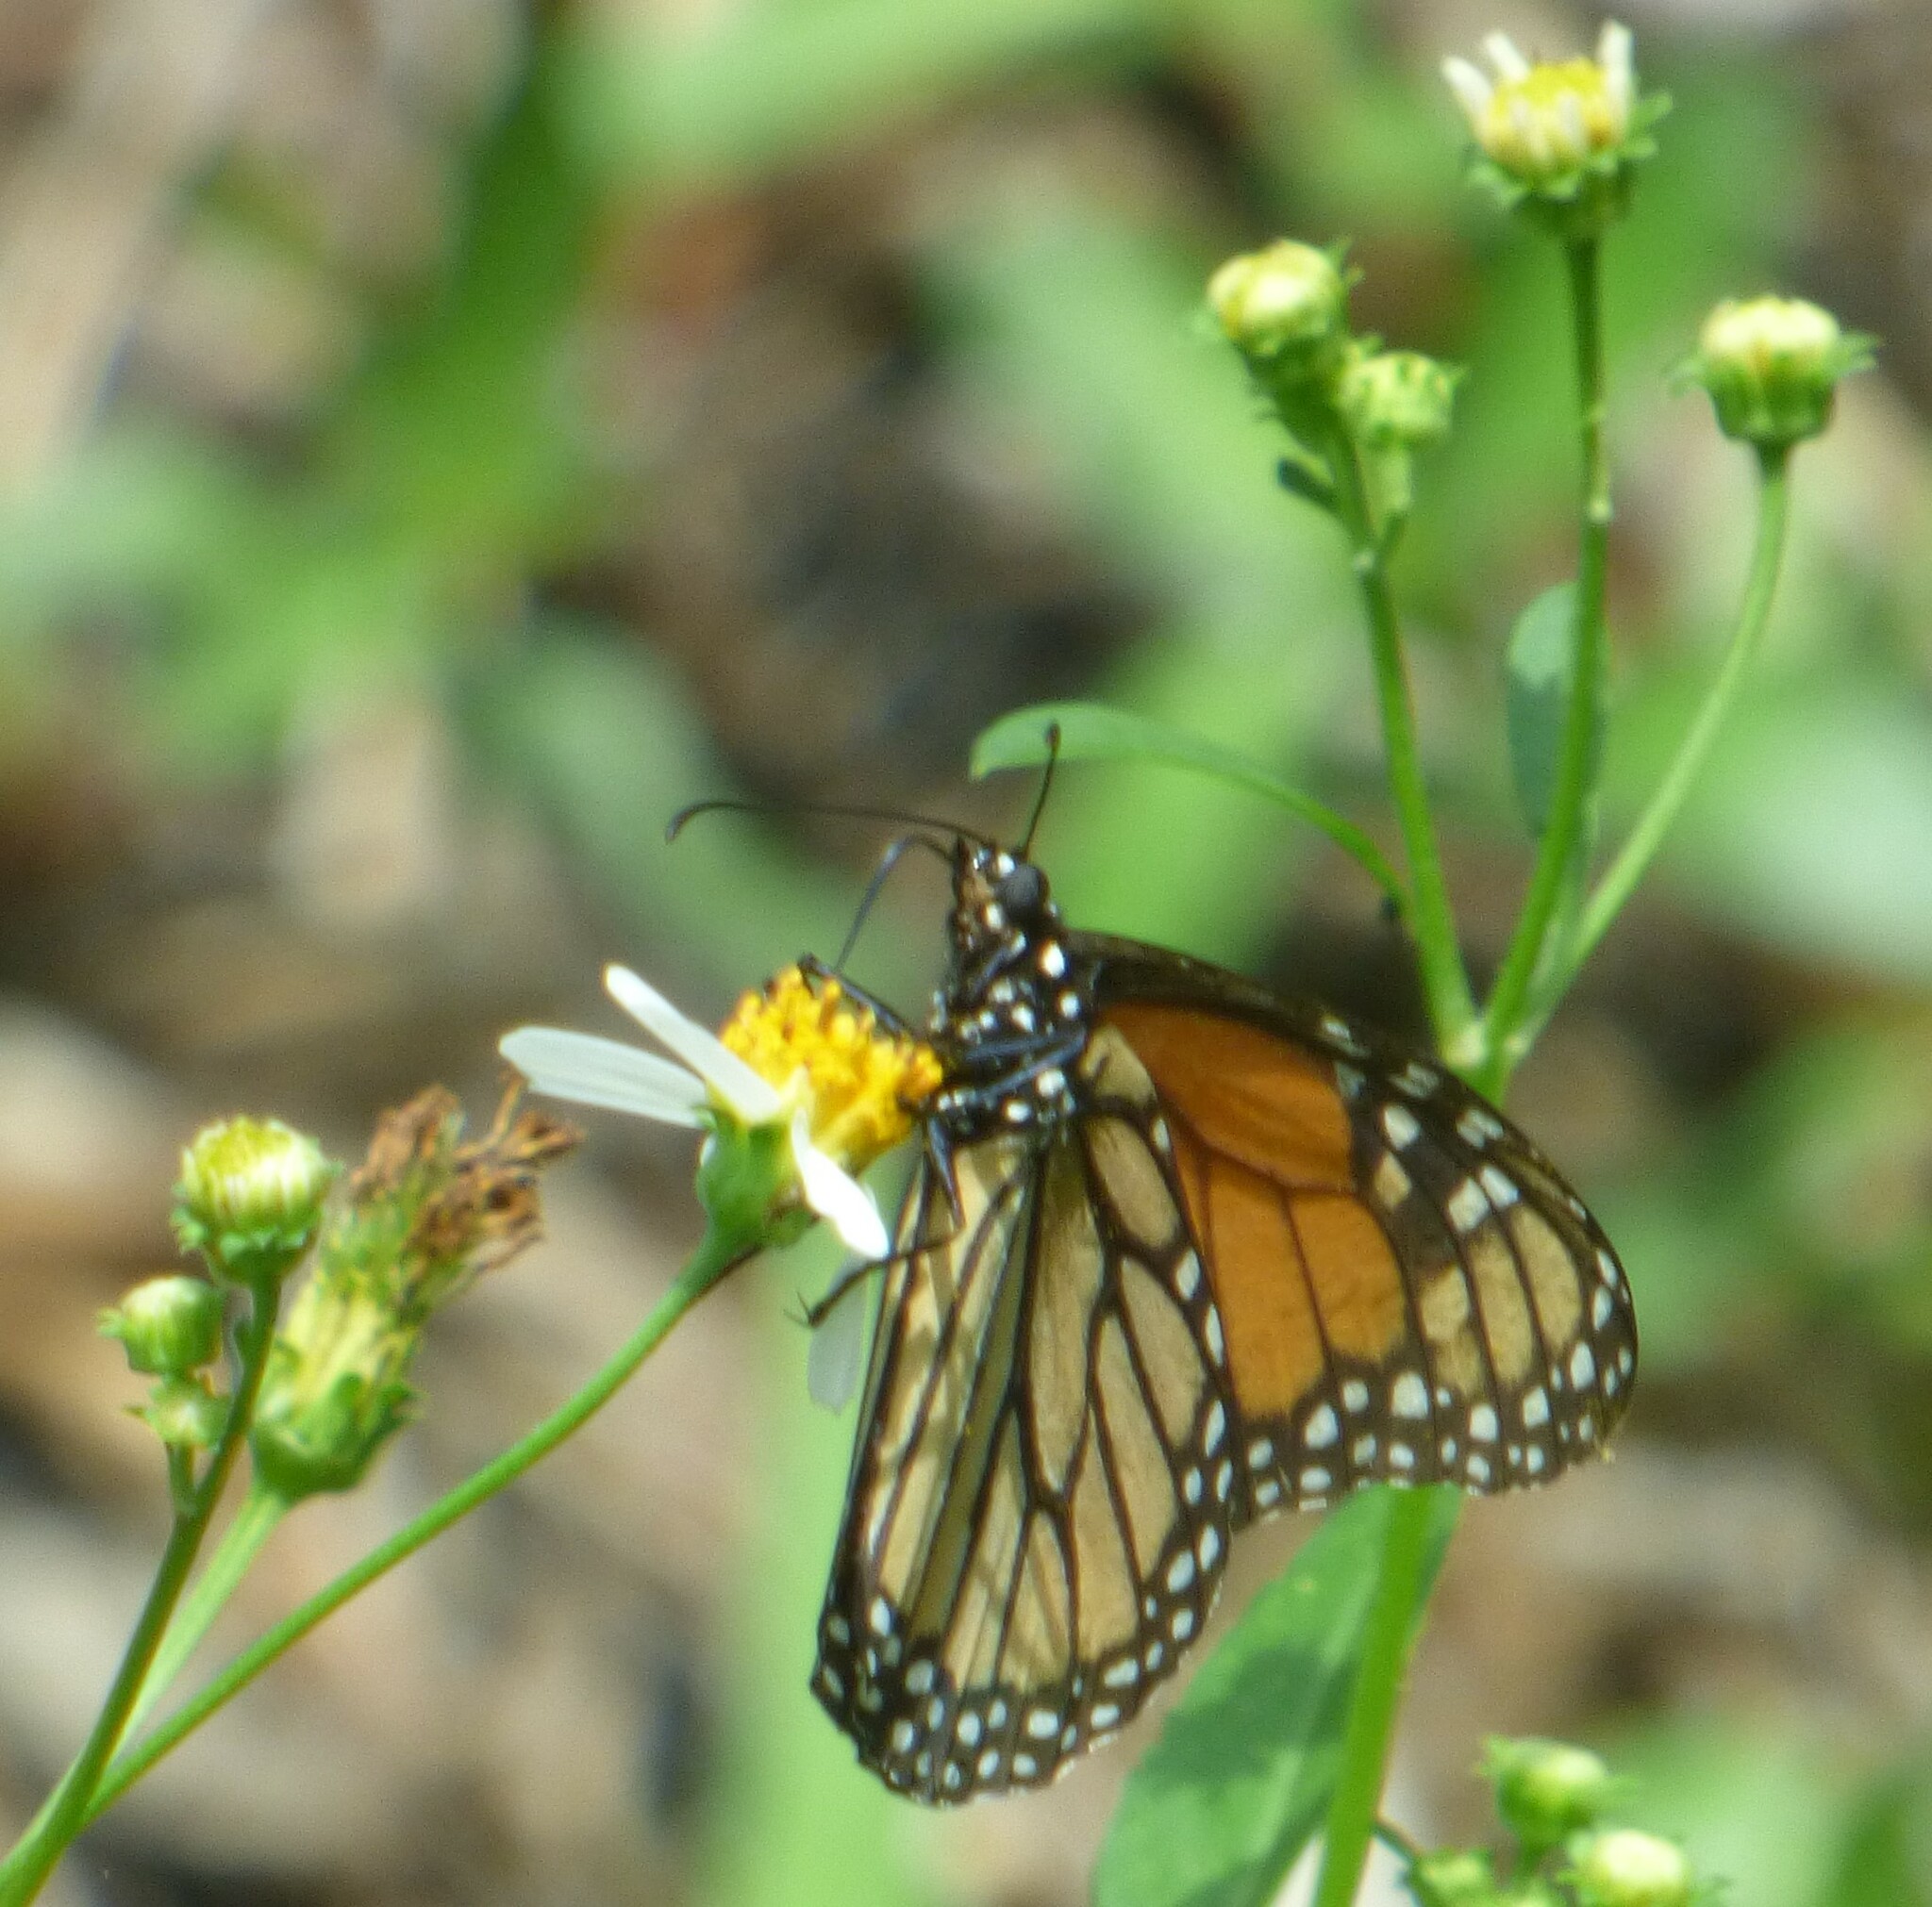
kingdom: Animalia
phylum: Arthropoda
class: Insecta
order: Lepidoptera
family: Nymphalidae
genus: Danaus
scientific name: Danaus plexippus
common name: Monarch
